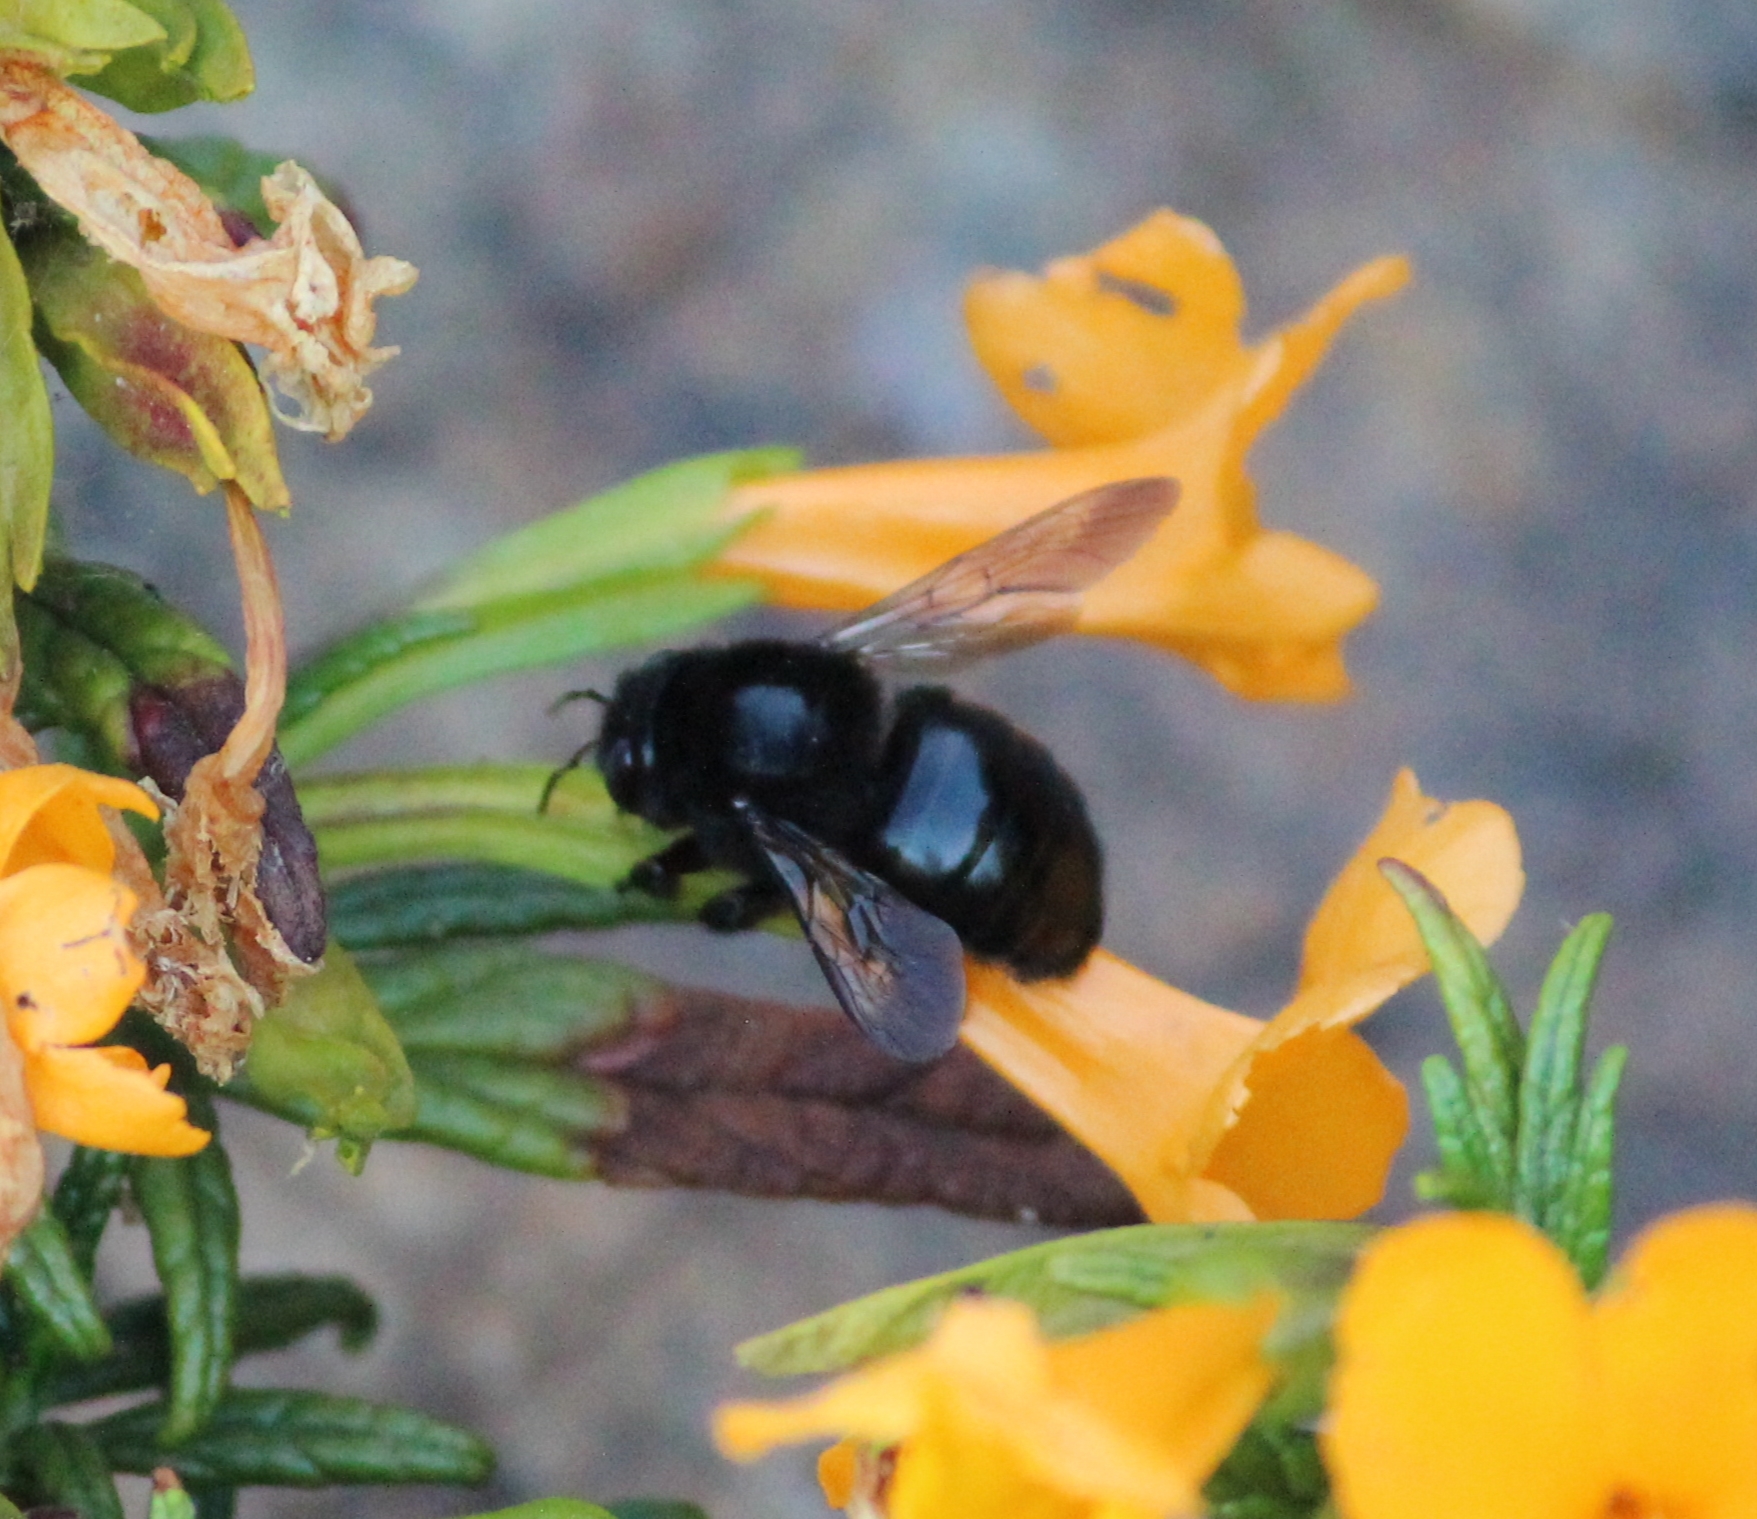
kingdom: Animalia
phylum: Arthropoda
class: Insecta
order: Hymenoptera
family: Apidae
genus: Xylocopa
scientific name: Xylocopa tabaniformis
